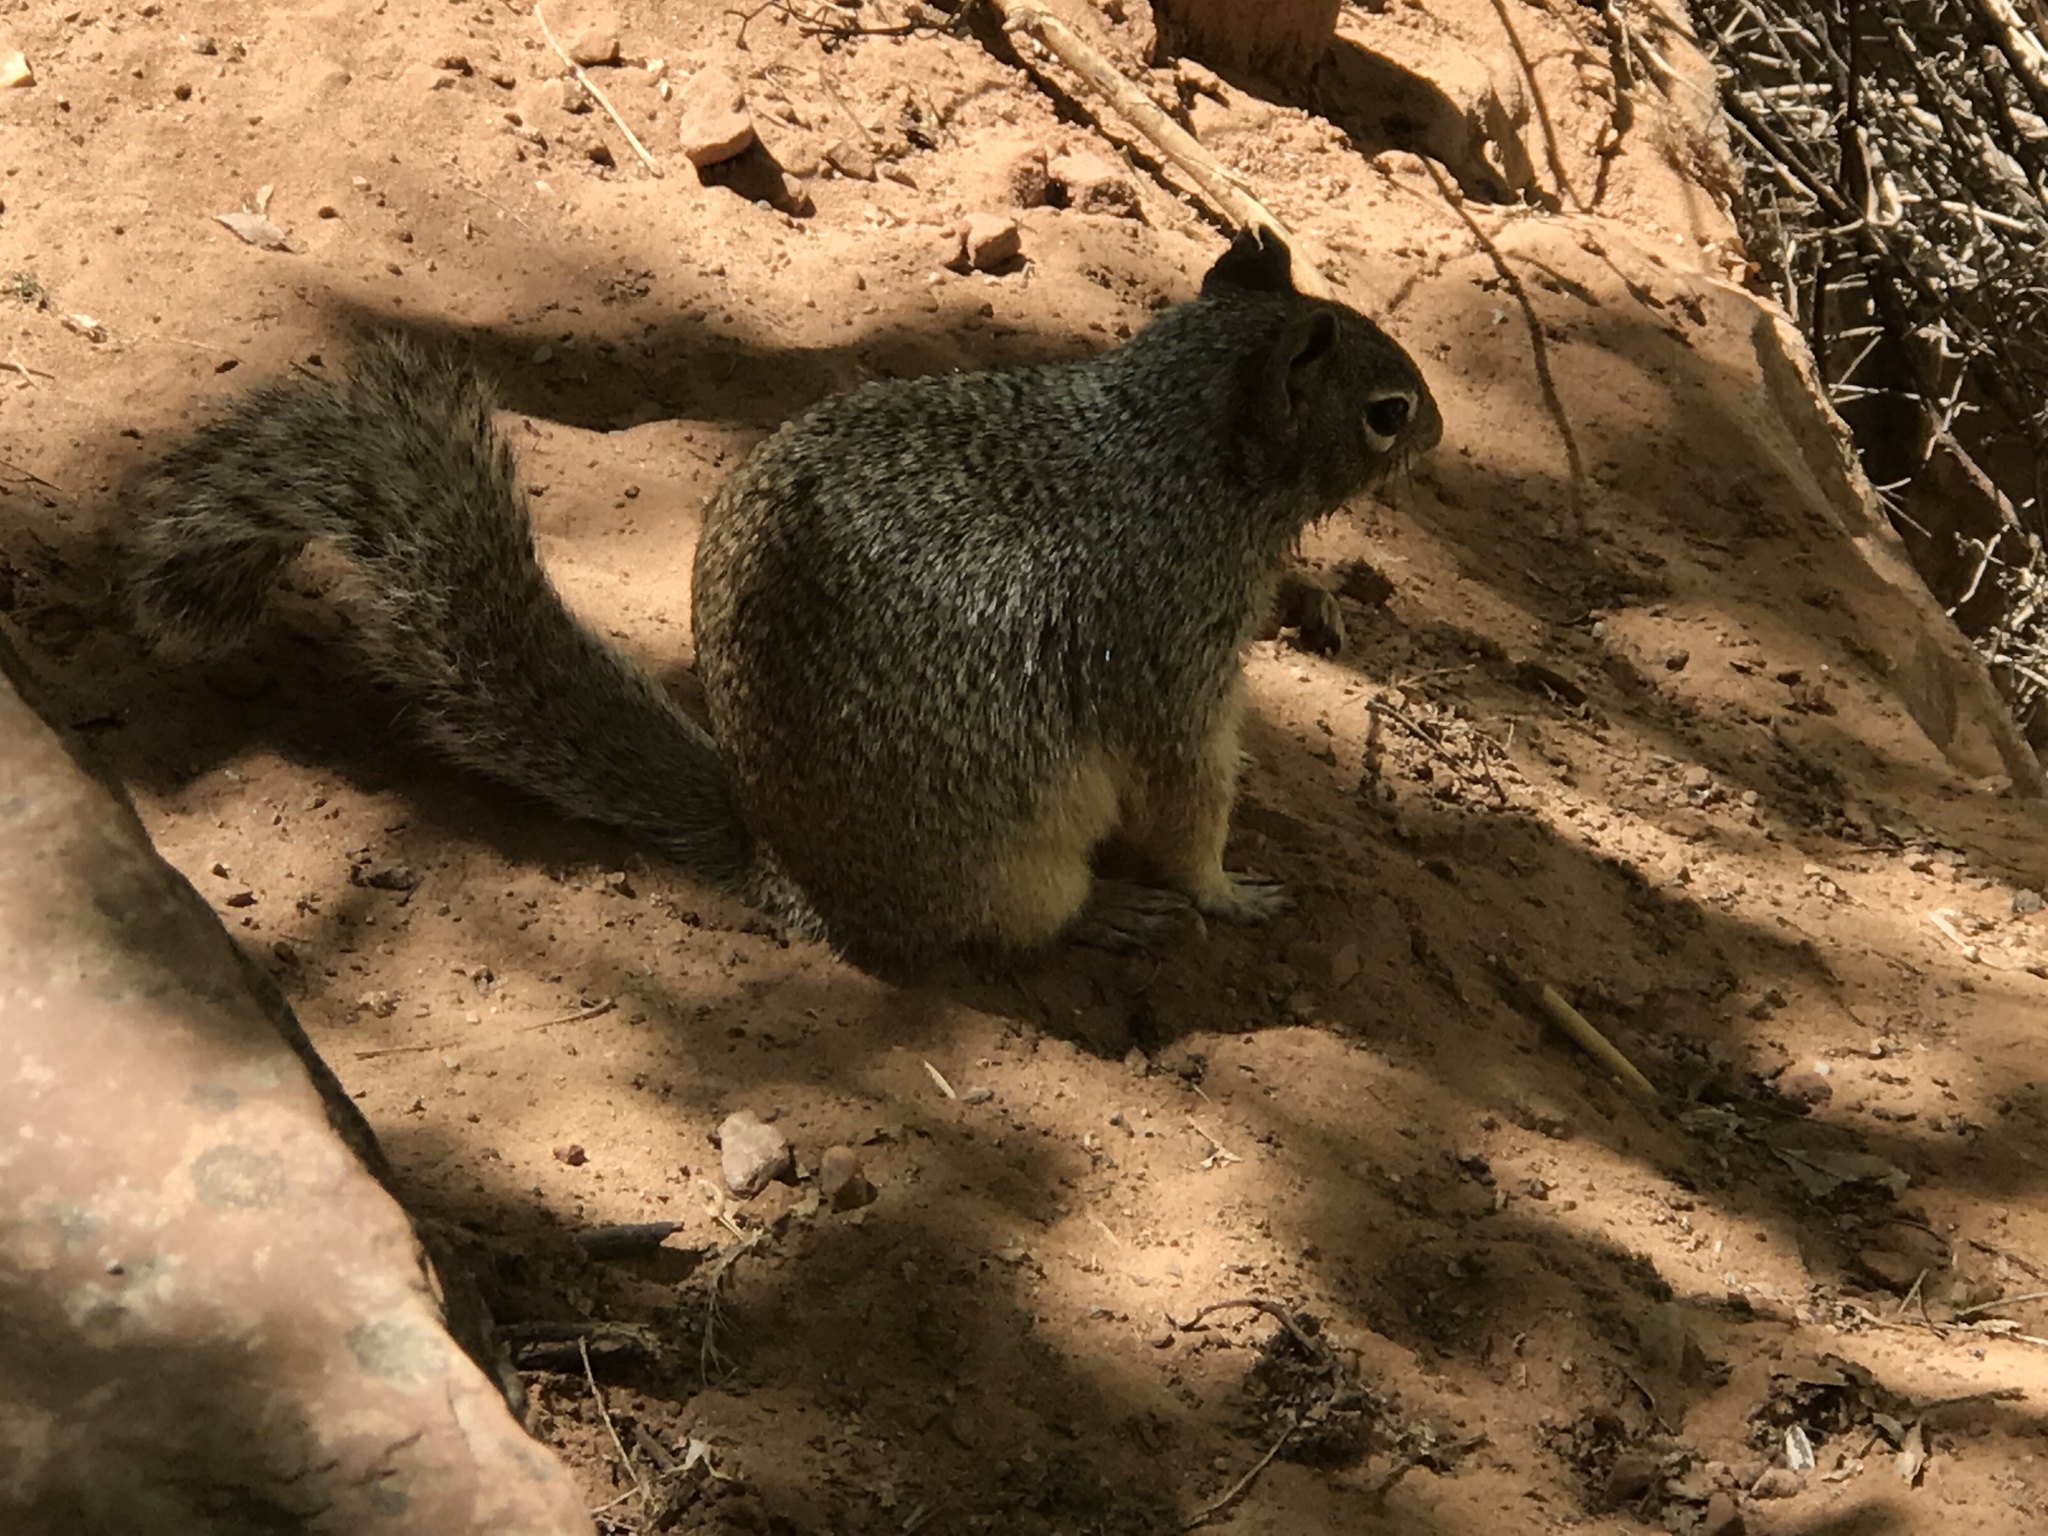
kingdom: Animalia
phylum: Chordata
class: Mammalia
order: Rodentia
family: Sciuridae
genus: Otospermophilus
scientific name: Otospermophilus variegatus
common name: Rock squirrel
